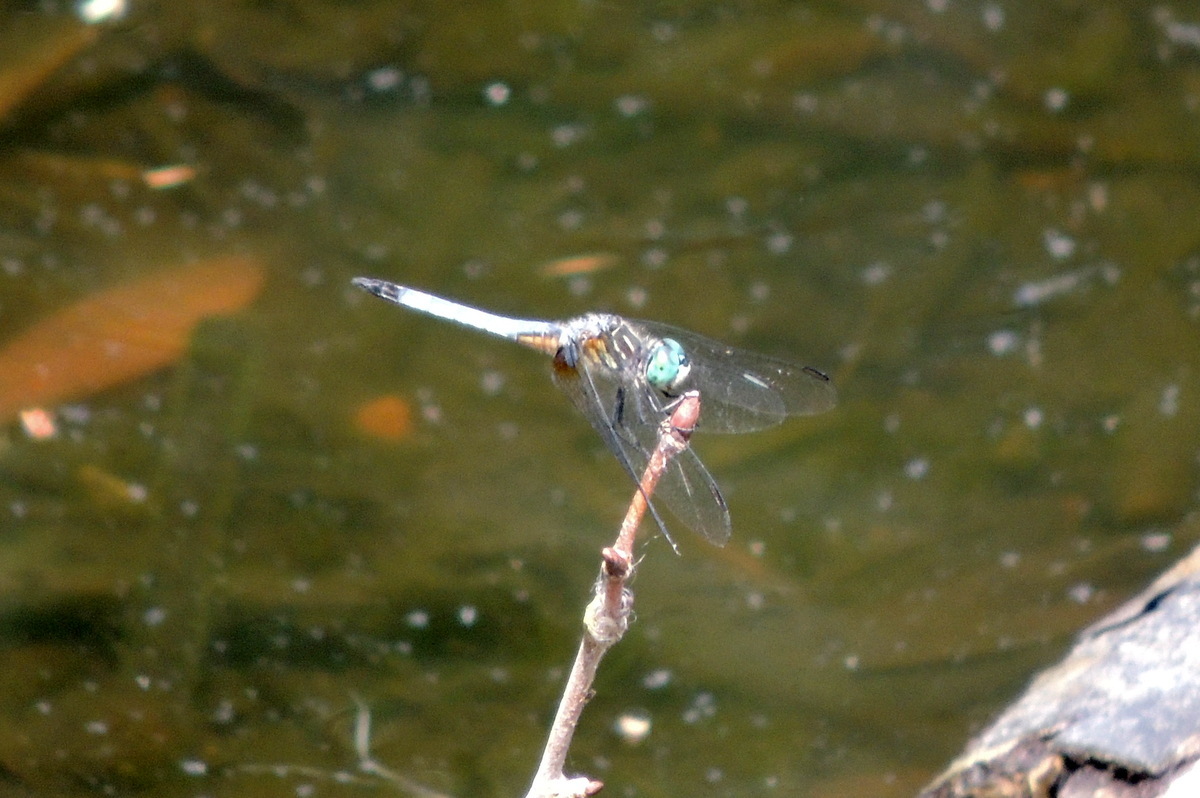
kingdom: Animalia
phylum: Arthropoda
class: Insecta
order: Odonata
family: Libellulidae
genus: Pachydiplax
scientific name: Pachydiplax longipennis
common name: Blue dasher
